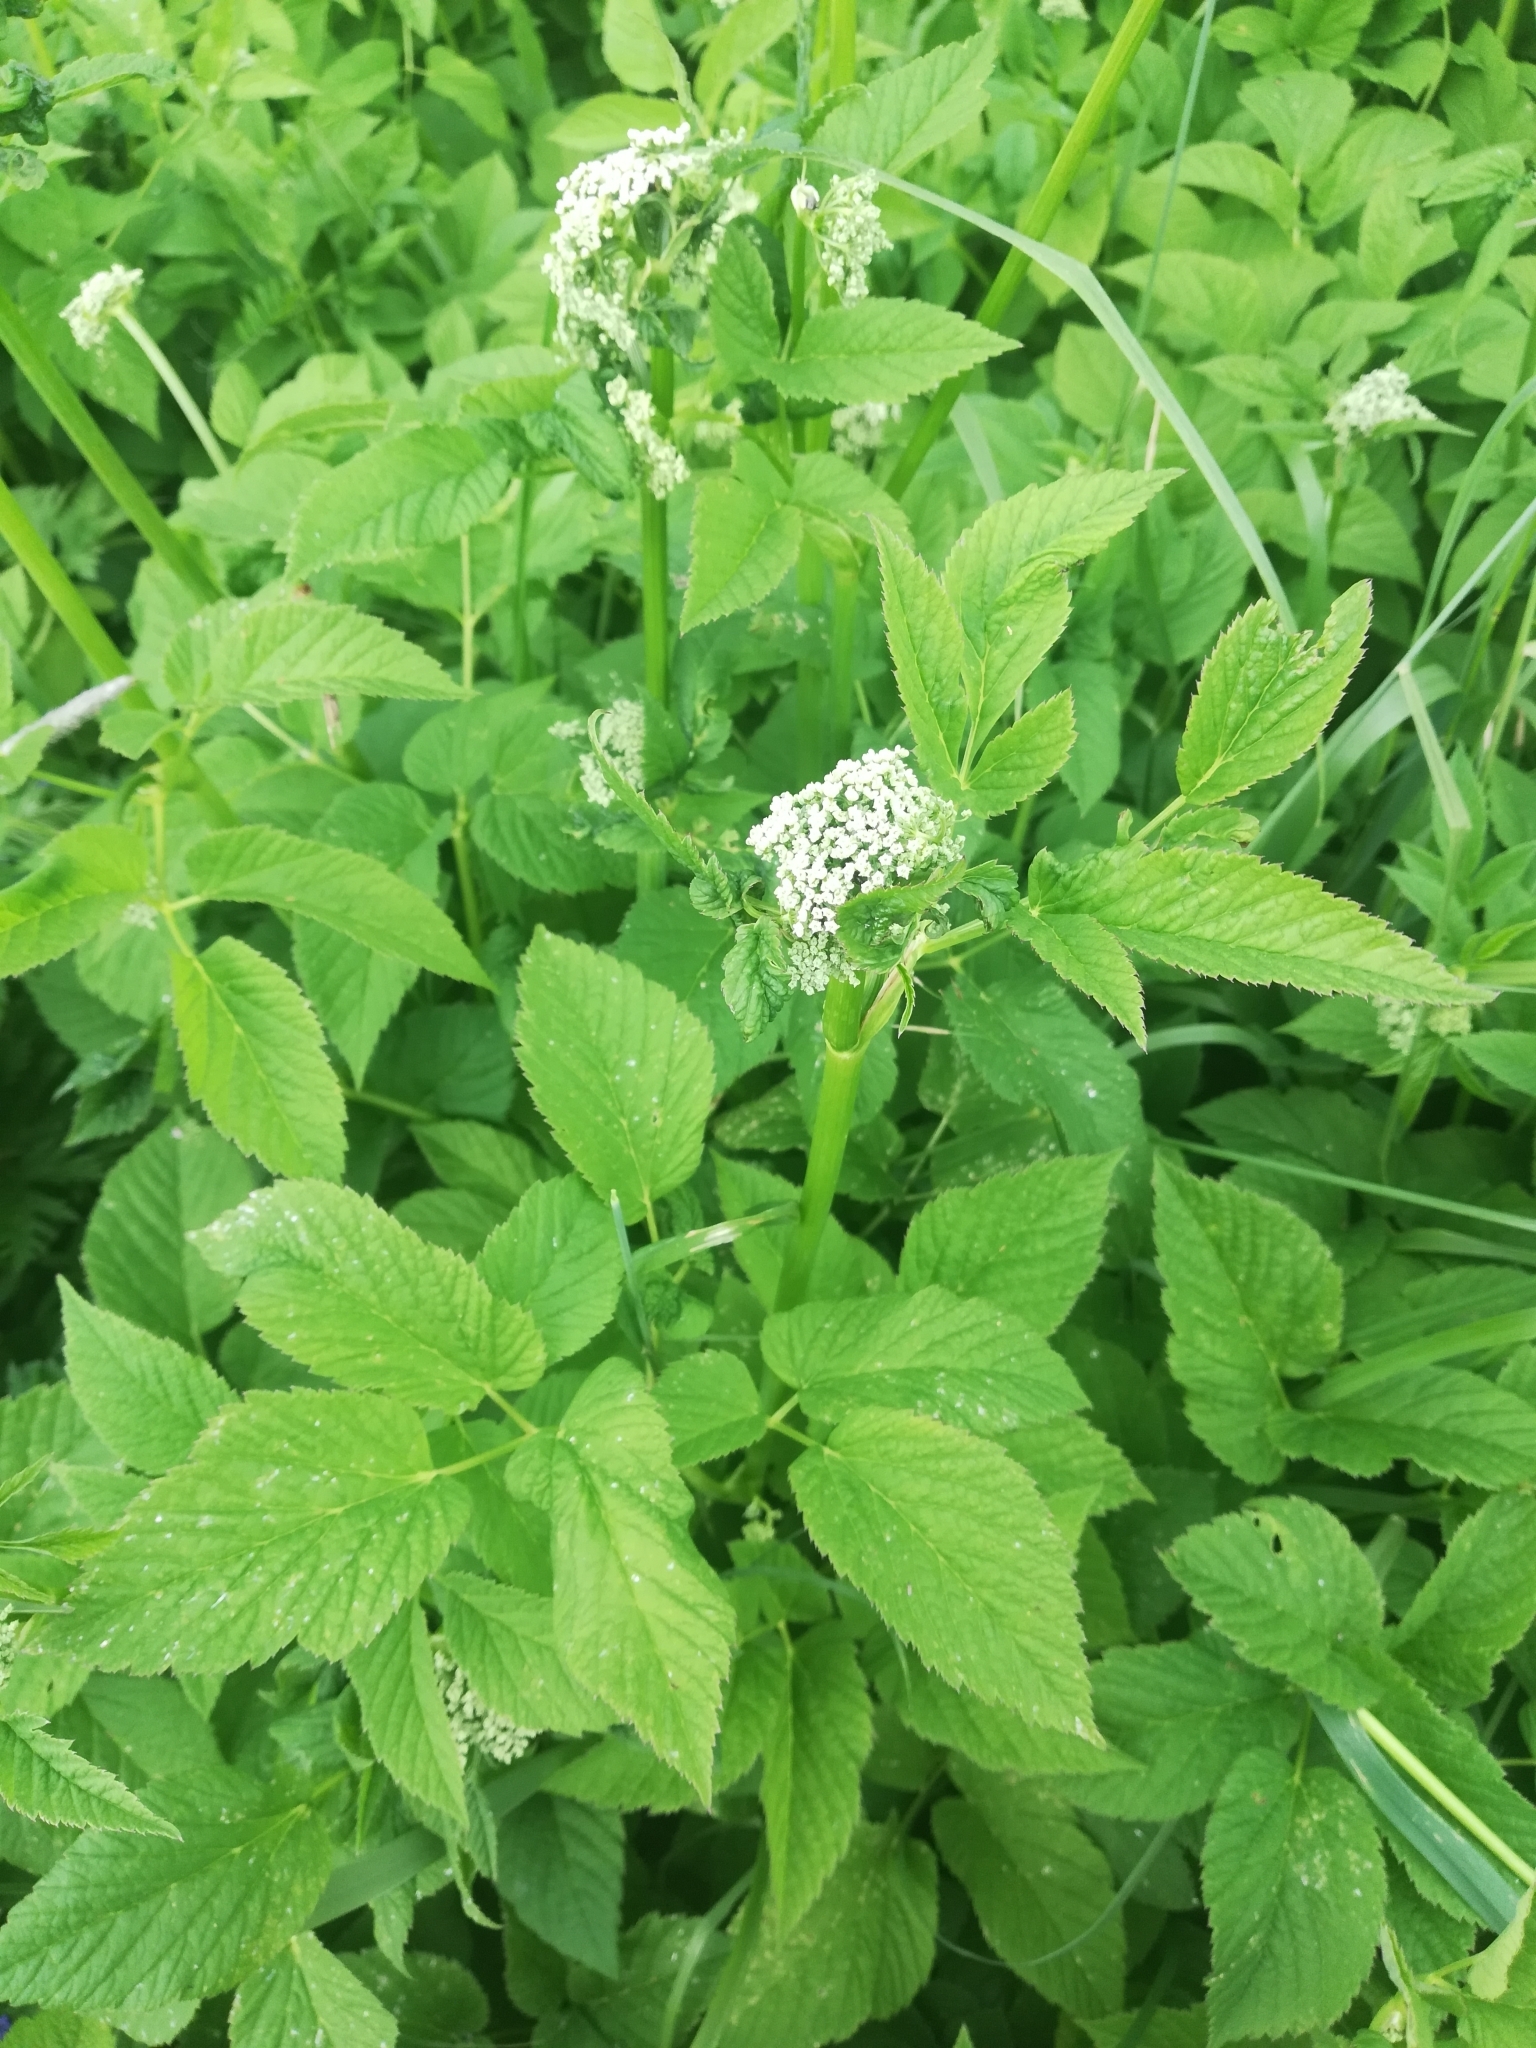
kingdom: Plantae
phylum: Tracheophyta
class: Magnoliopsida
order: Apiales
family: Apiaceae
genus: Aegopodium
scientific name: Aegopodium podagraria
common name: Ground-elder
